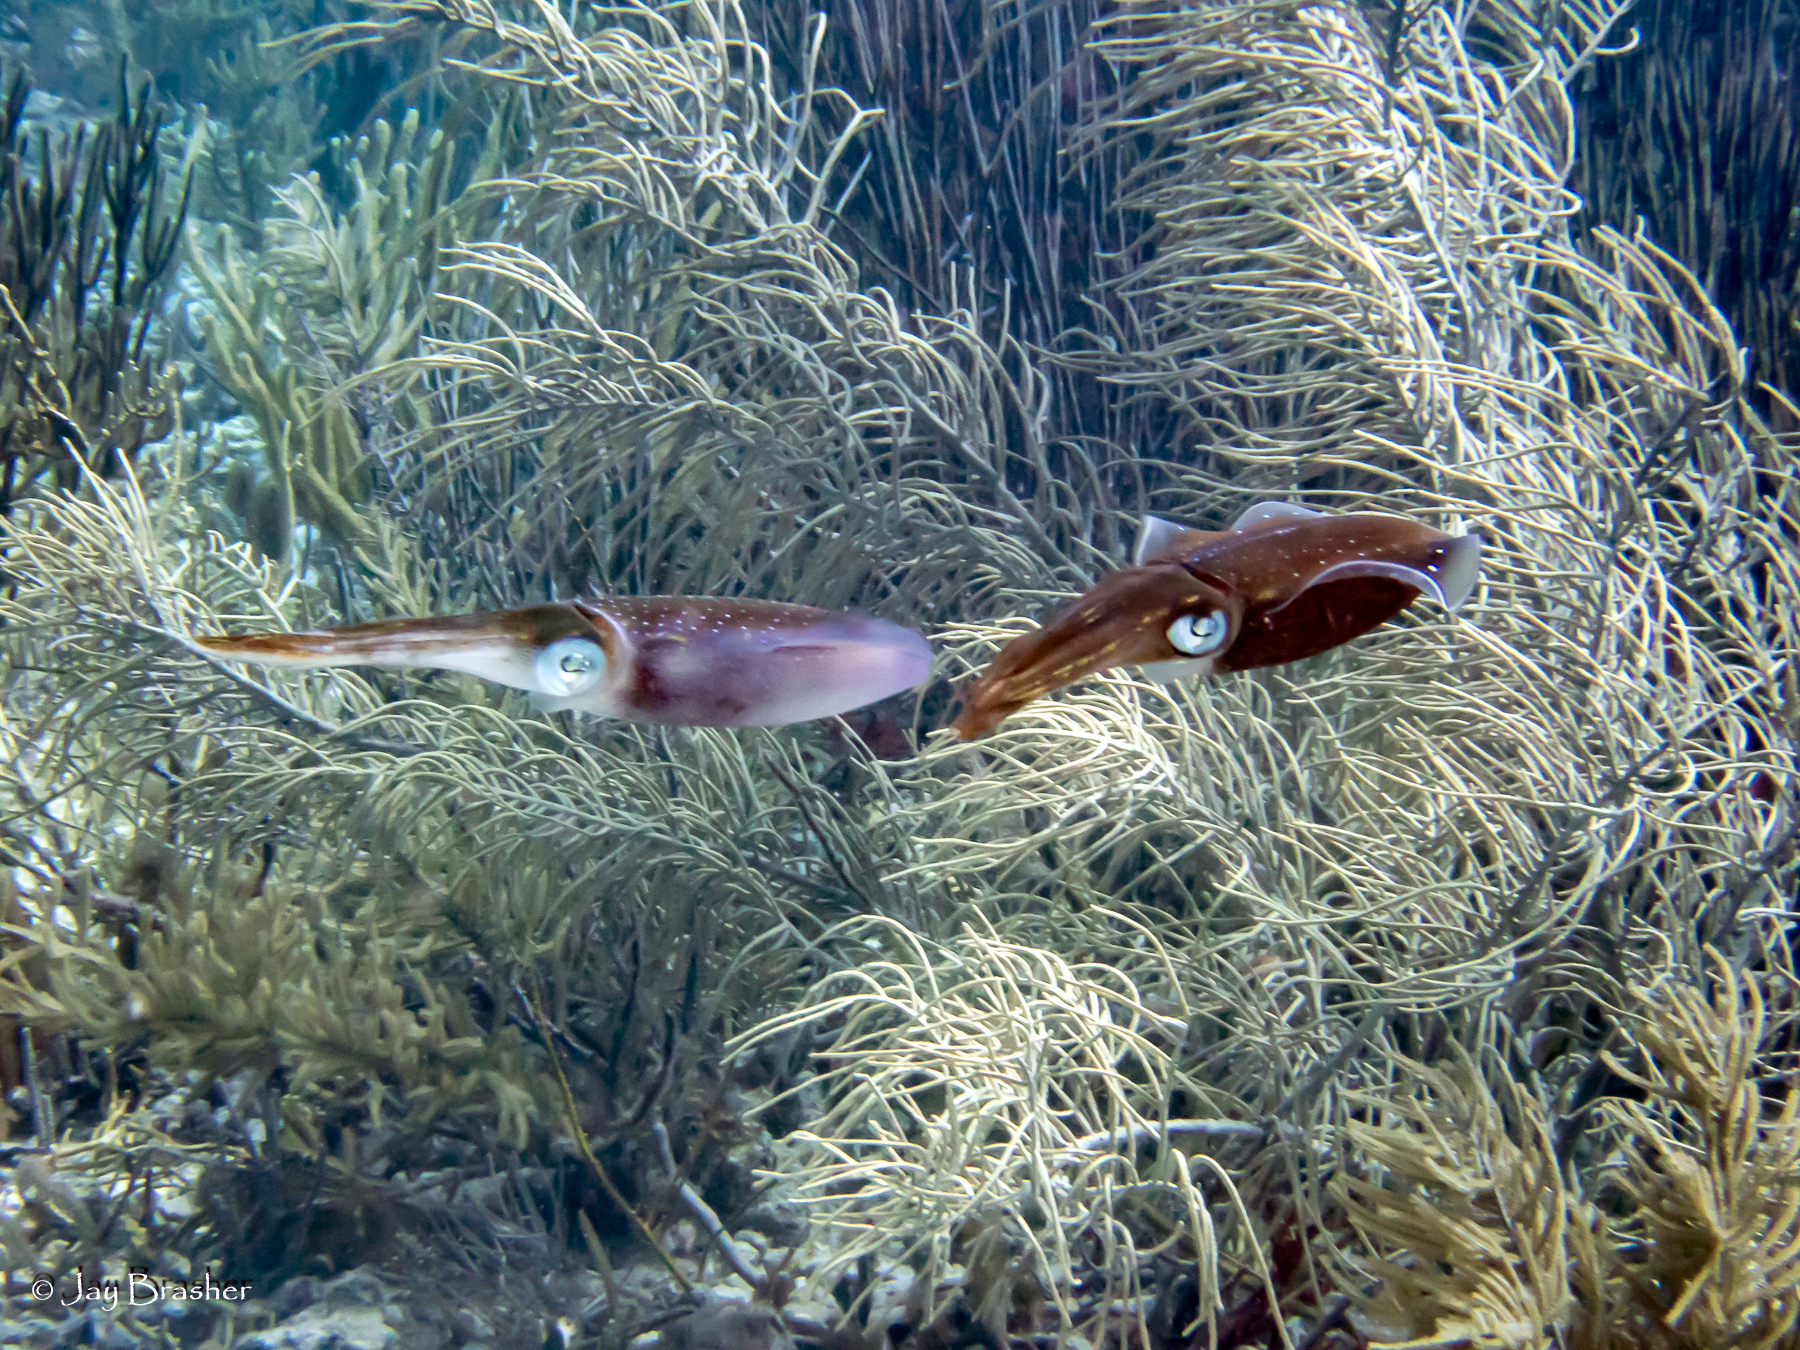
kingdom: Animalia
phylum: Mollusca
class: Cephalopoda
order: Myopsida
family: Loliginidae
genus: Sepioteuthis
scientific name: Sepioteuthis sepioidea
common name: Caribbean reef squid
